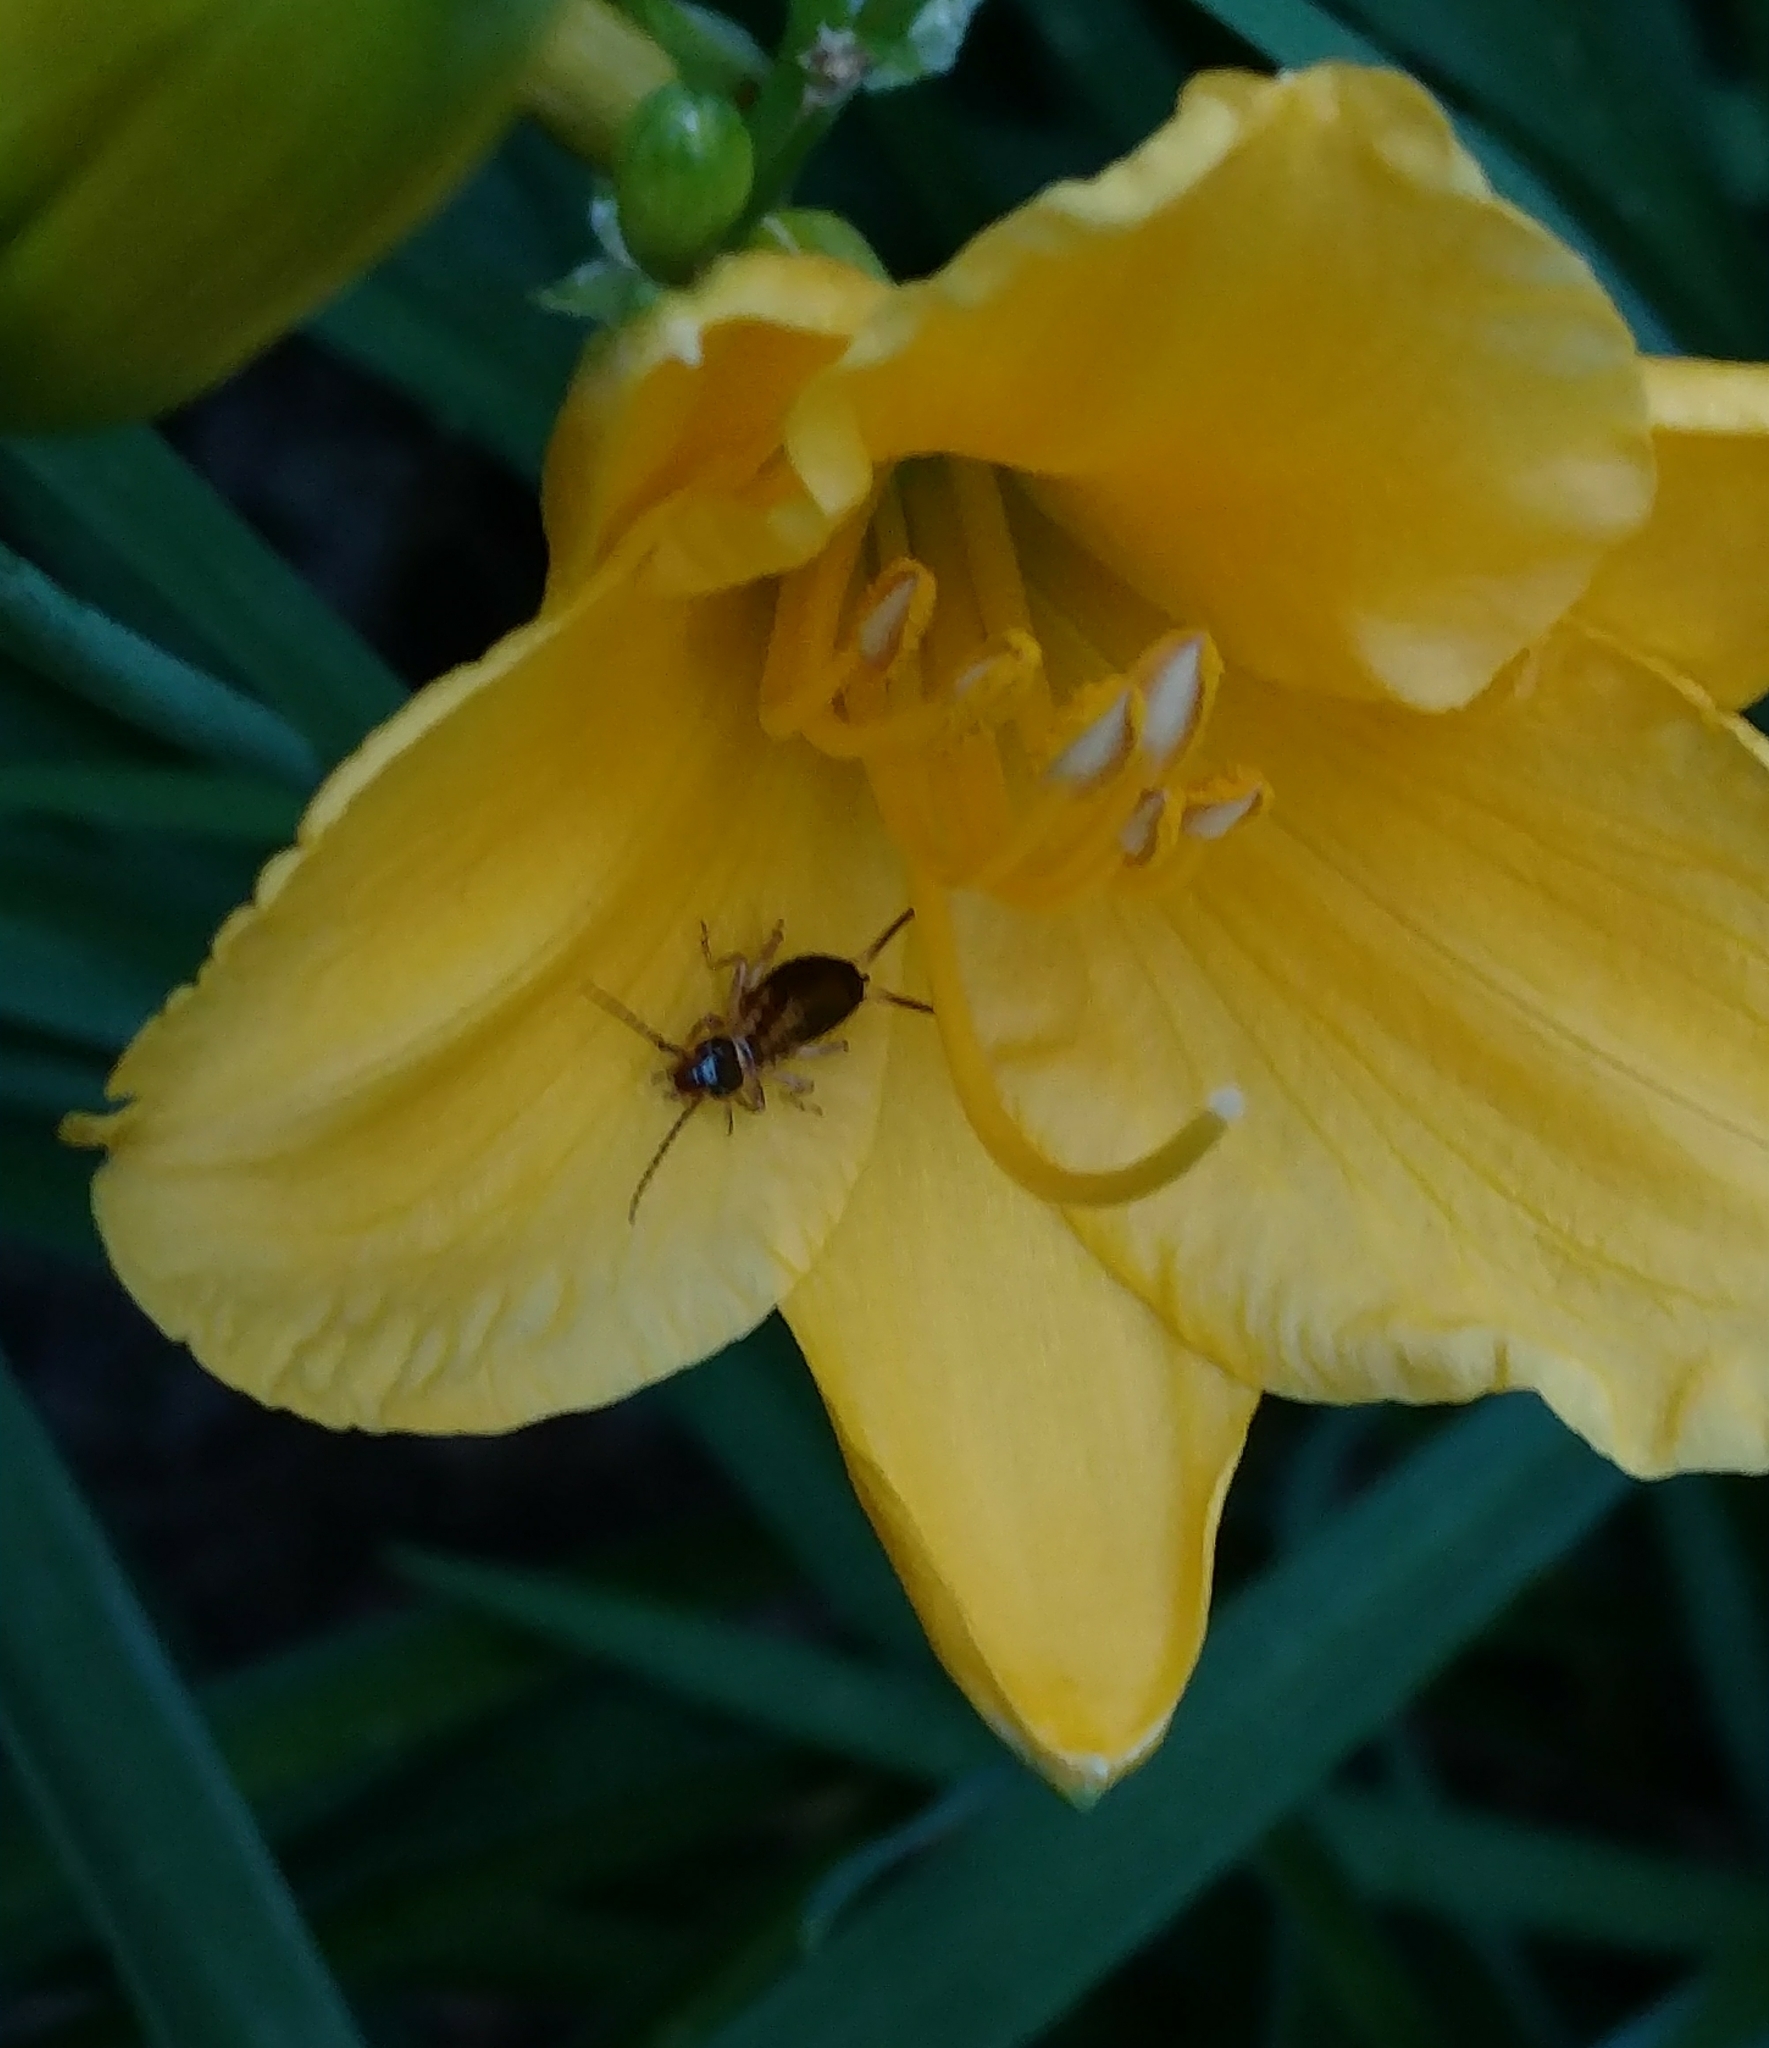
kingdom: Animalia
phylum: Arthropoda
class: Insecta
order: Dermaptera
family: Forficulidae
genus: Forficula
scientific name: Forficula
